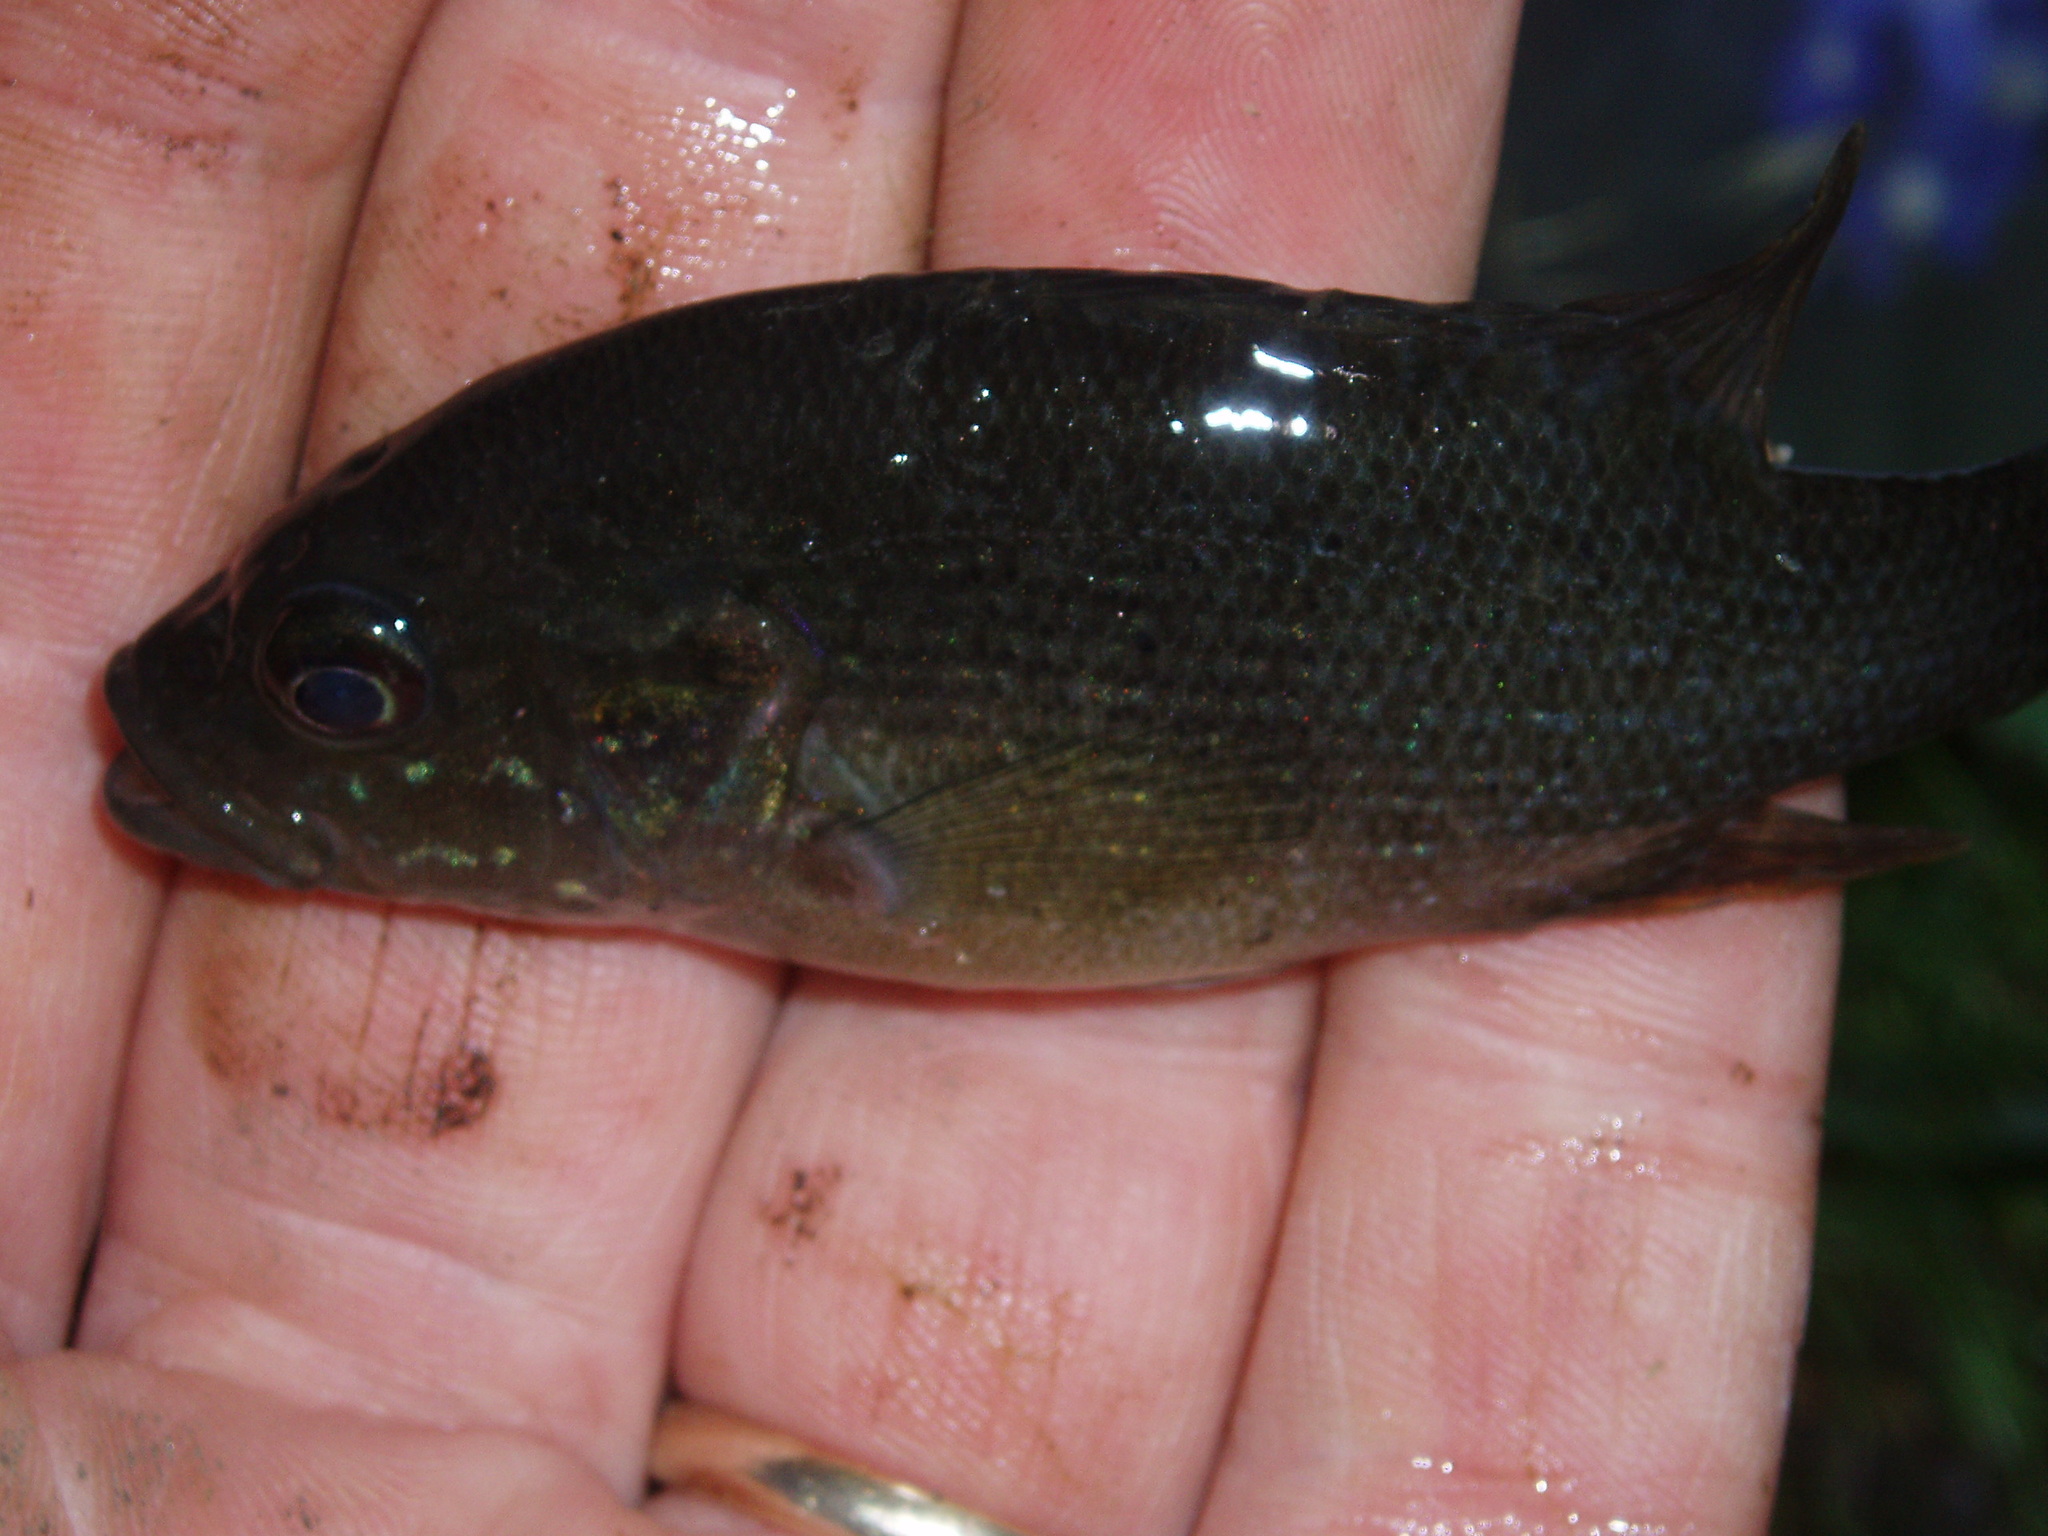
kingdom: Animalia
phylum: Chordata
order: Perciformes
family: Centrarchidae
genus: Lepomis
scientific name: Lepomis cyanellus
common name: Green sunfish
